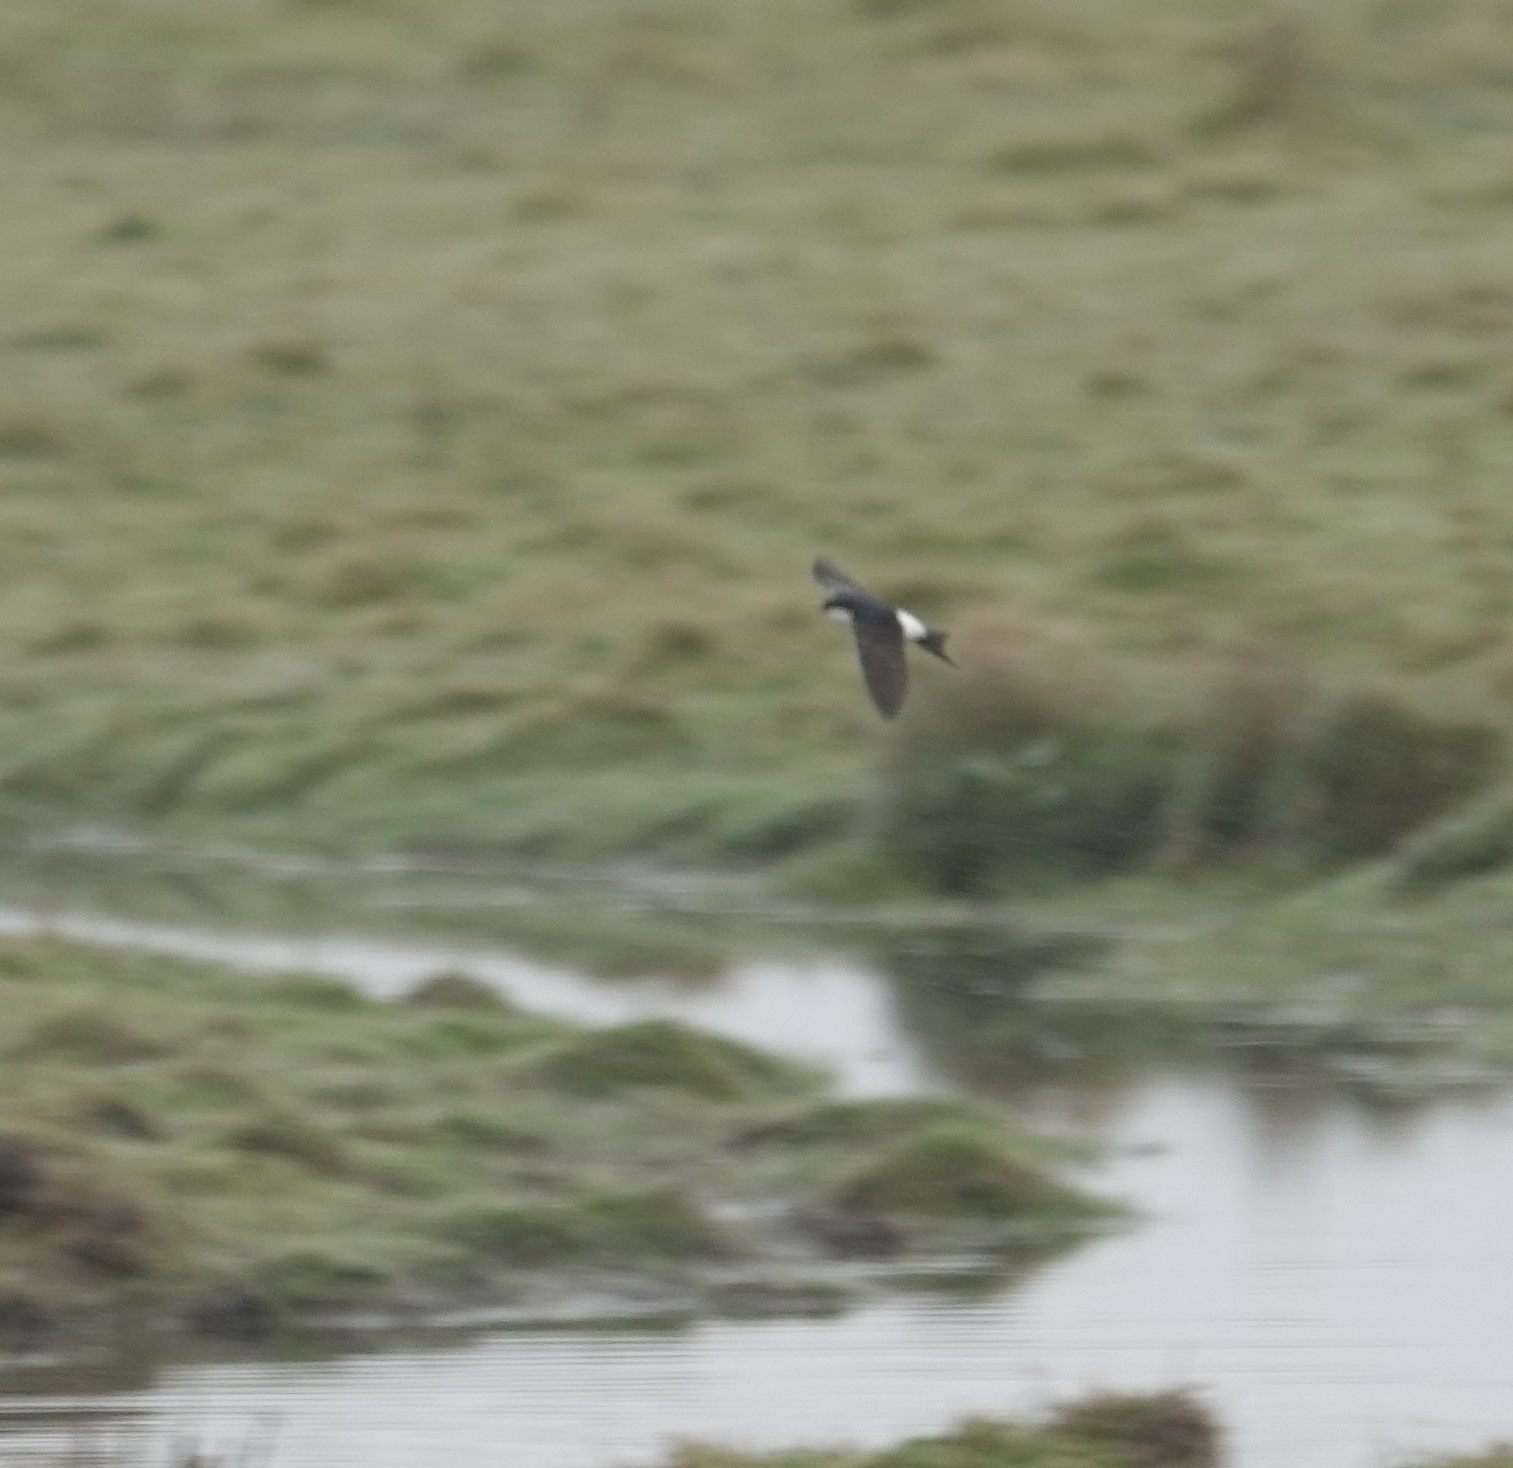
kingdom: Animalia
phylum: Chordata
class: Aves
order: Passeriformes
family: Hirundinidae
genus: Delichon
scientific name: Delichon urbicum
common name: Common house martin
